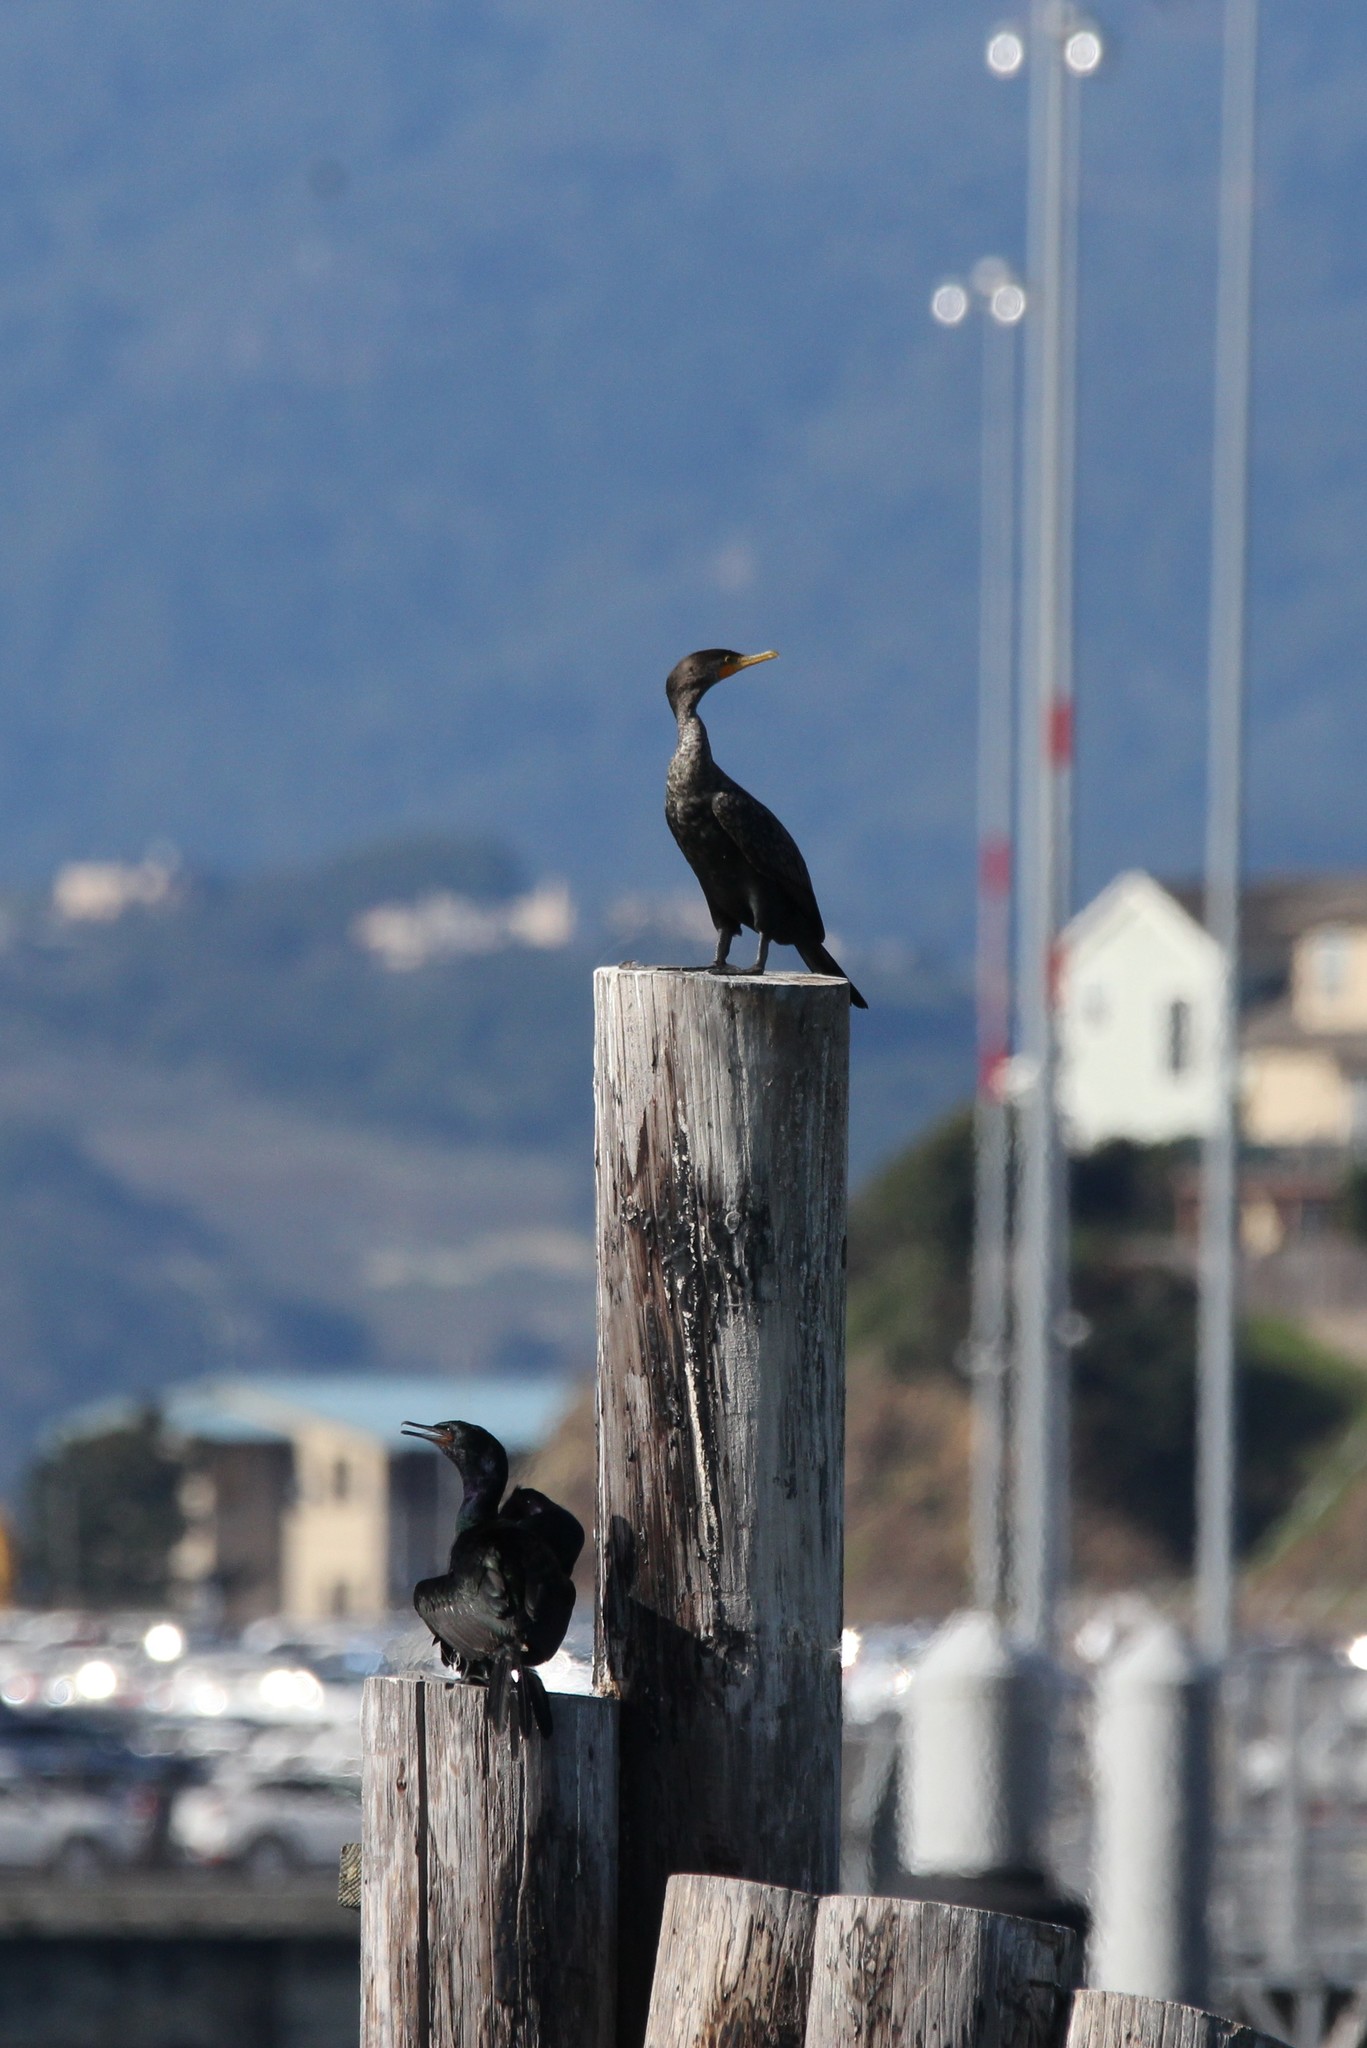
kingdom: Animalia
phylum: Chordata
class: Aves
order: Suliformes
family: Phalacrocoracidae
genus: Phalacrocorax
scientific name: Phalacrocorax pelagicus
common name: Pelagic cormorant
